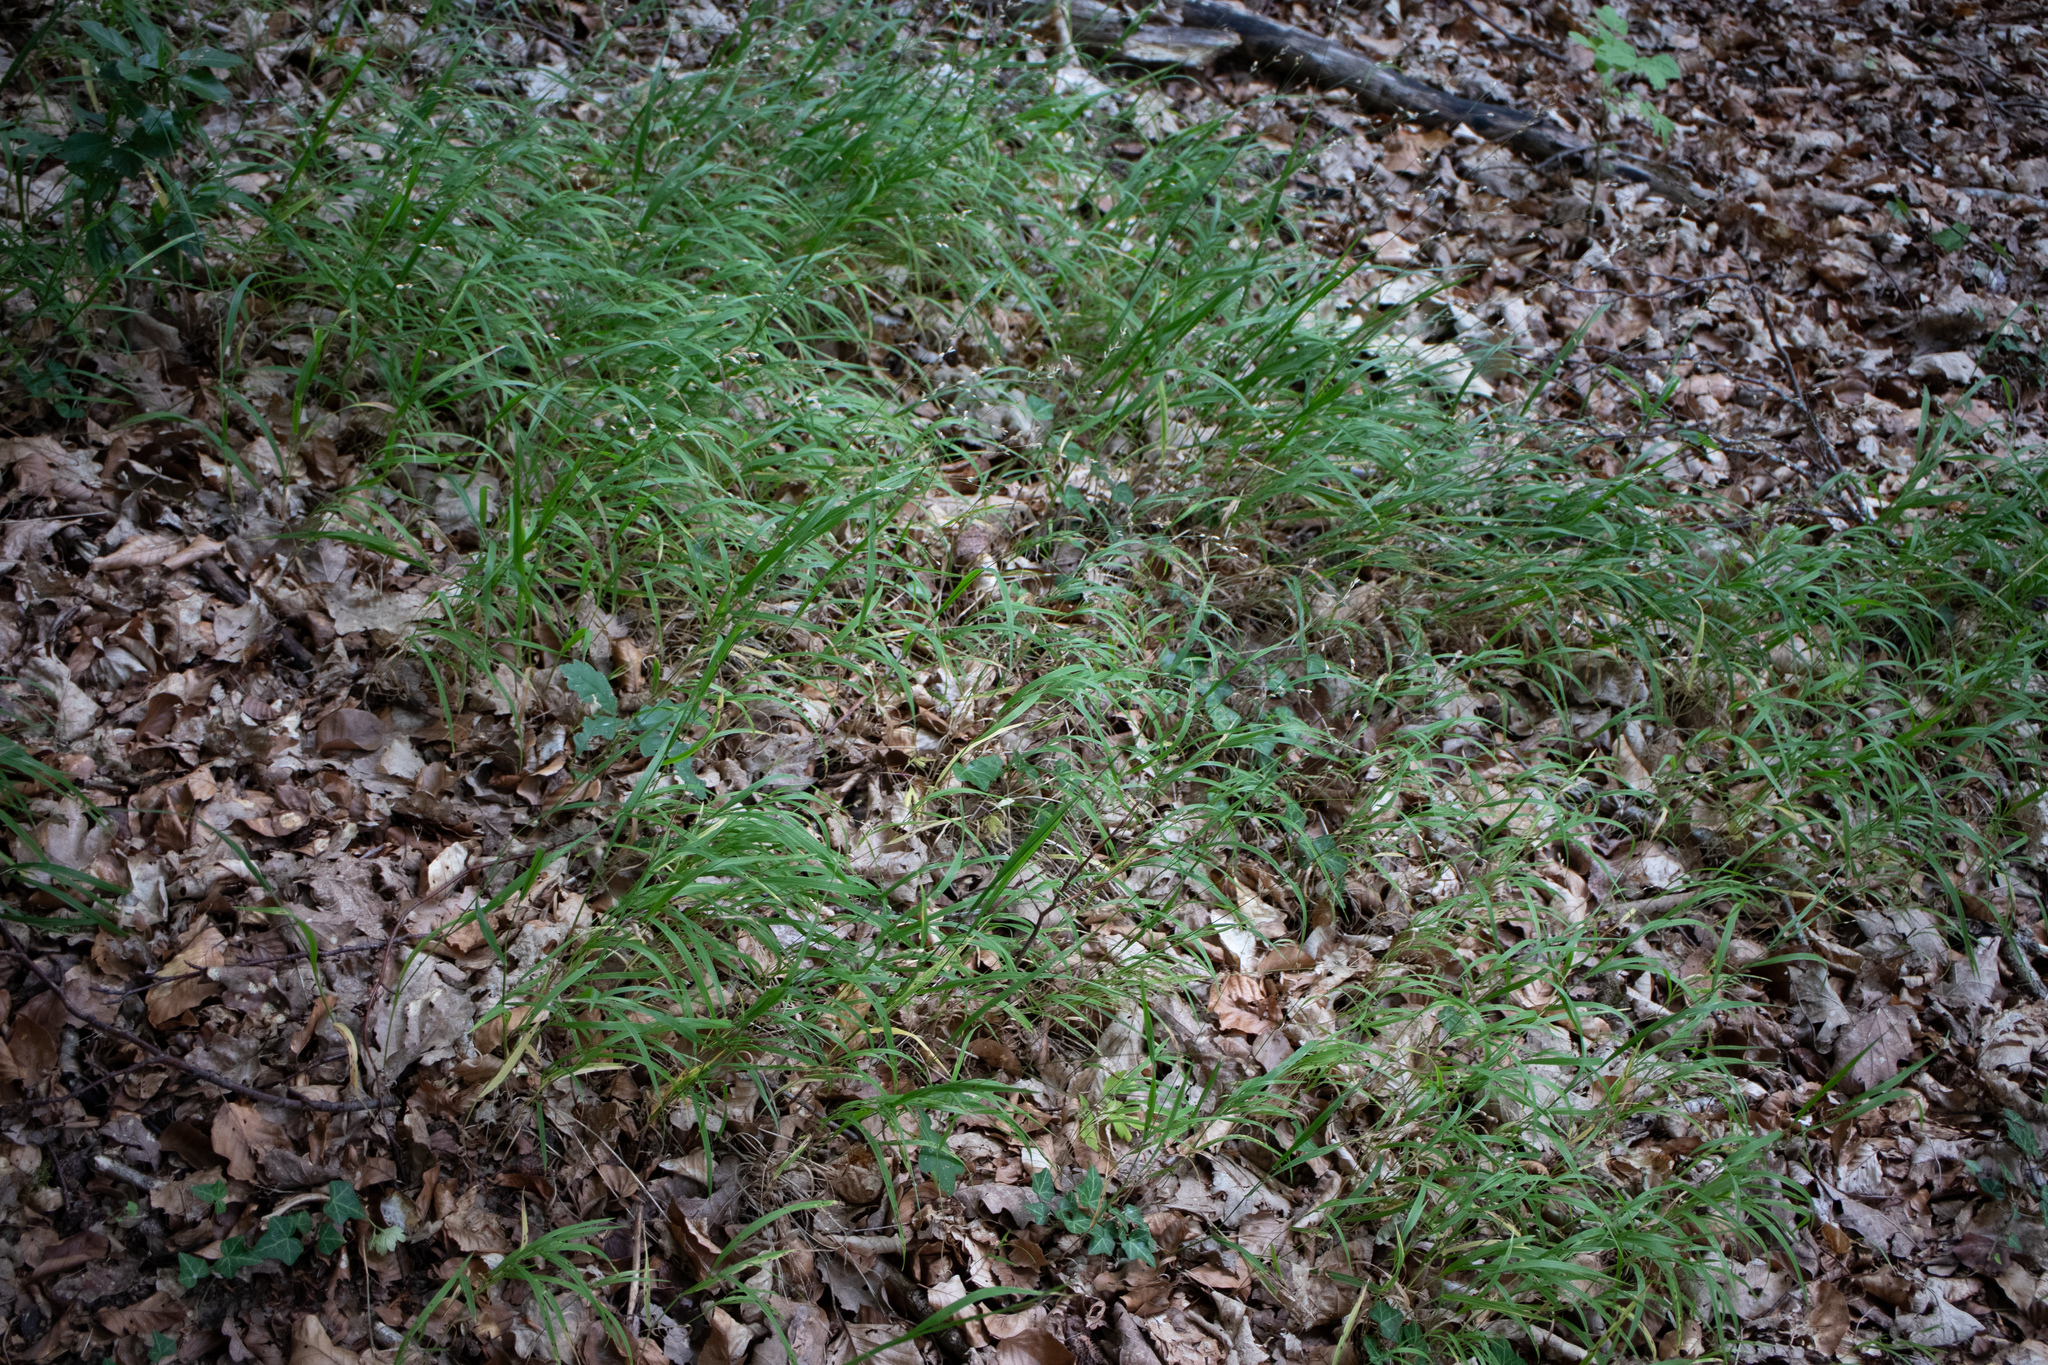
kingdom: Plantae
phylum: Tracheophyta
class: Liliopsida
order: Poales
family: Poaceae
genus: Melica
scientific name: Melica uniflora
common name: Wood melick
